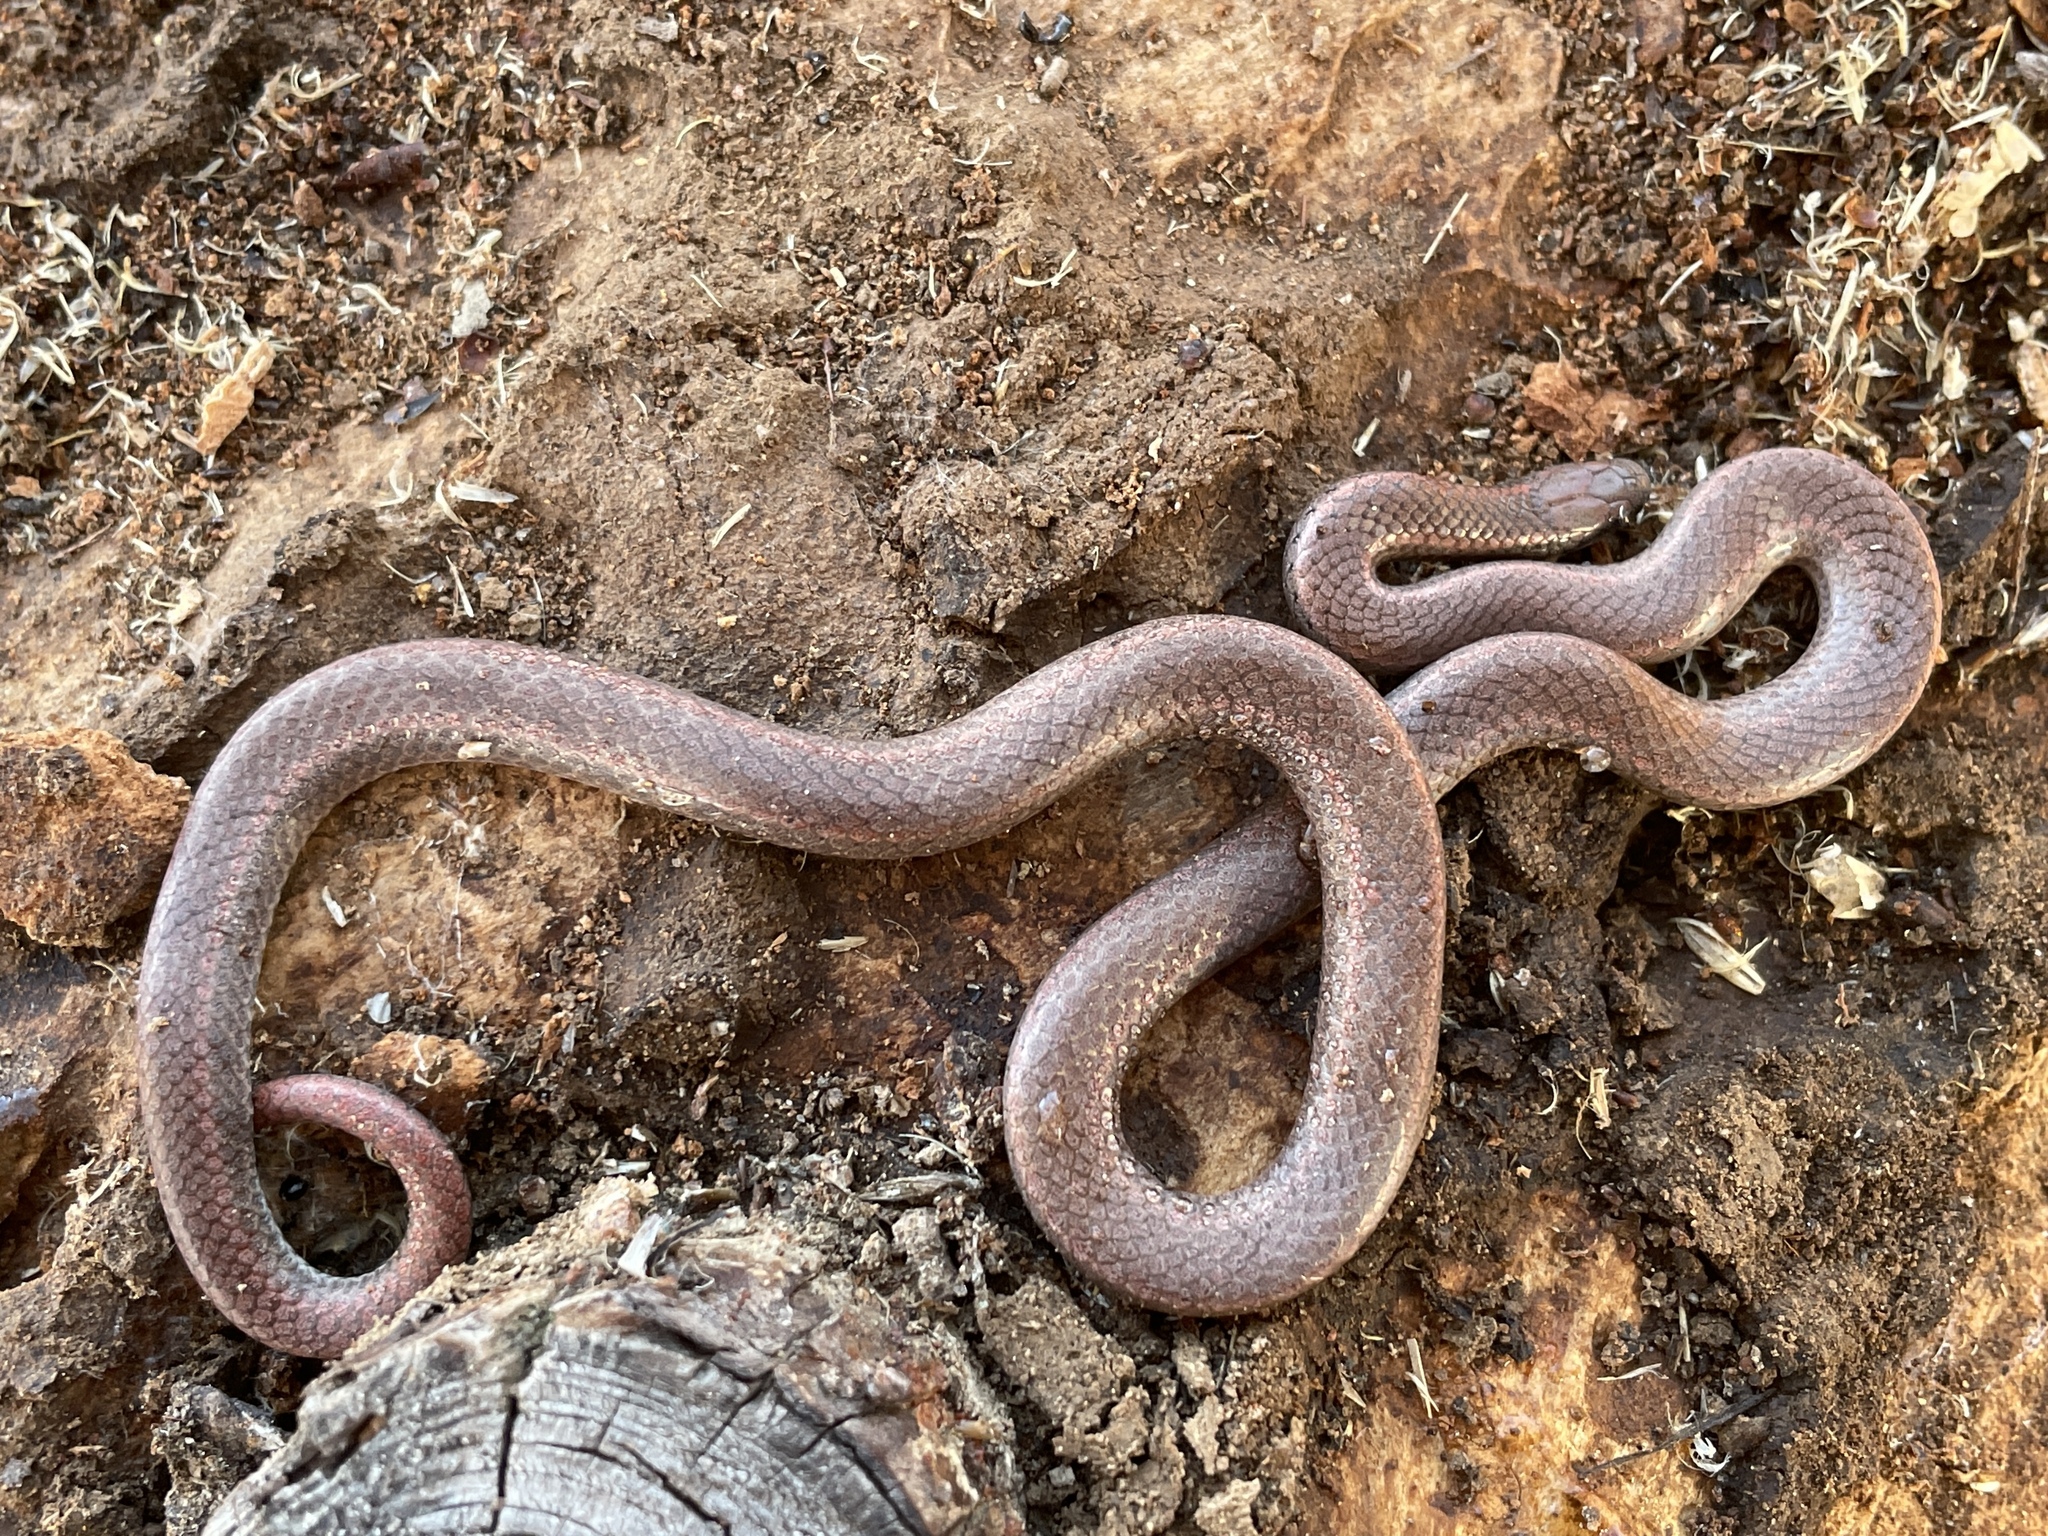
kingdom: Animalia
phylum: Chordata
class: Squamata
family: Colubridae
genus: Contia
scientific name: Contia tenuis
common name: Sharptail snake
